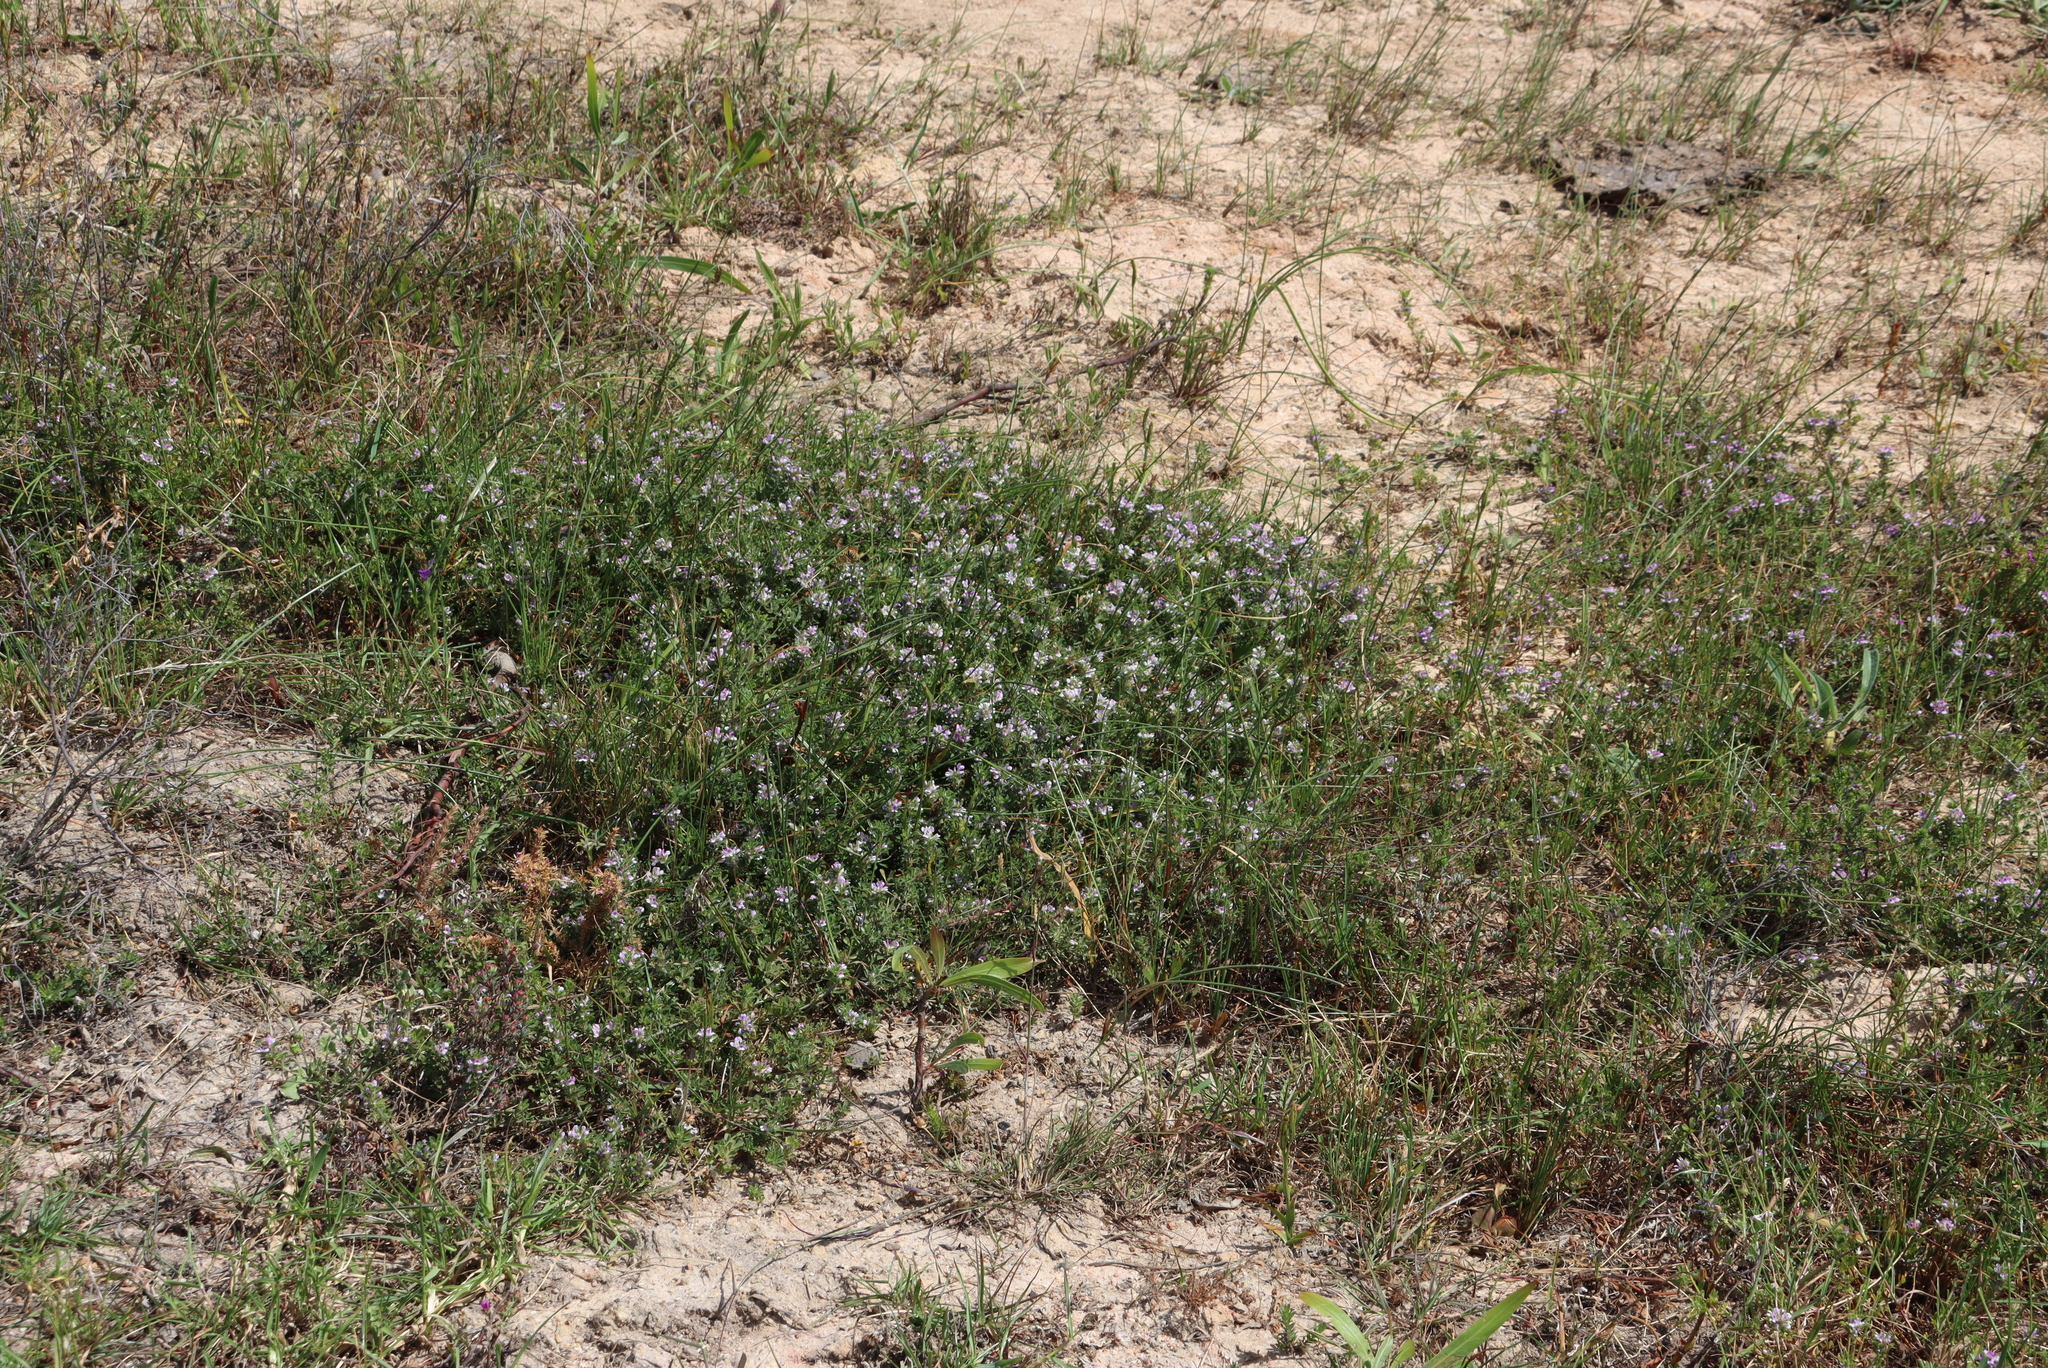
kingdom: Plantae
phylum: Tracheophyta
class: Magnoliopsida
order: Fabales
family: Fabaceae
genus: Psoralea
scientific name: Psoralea
